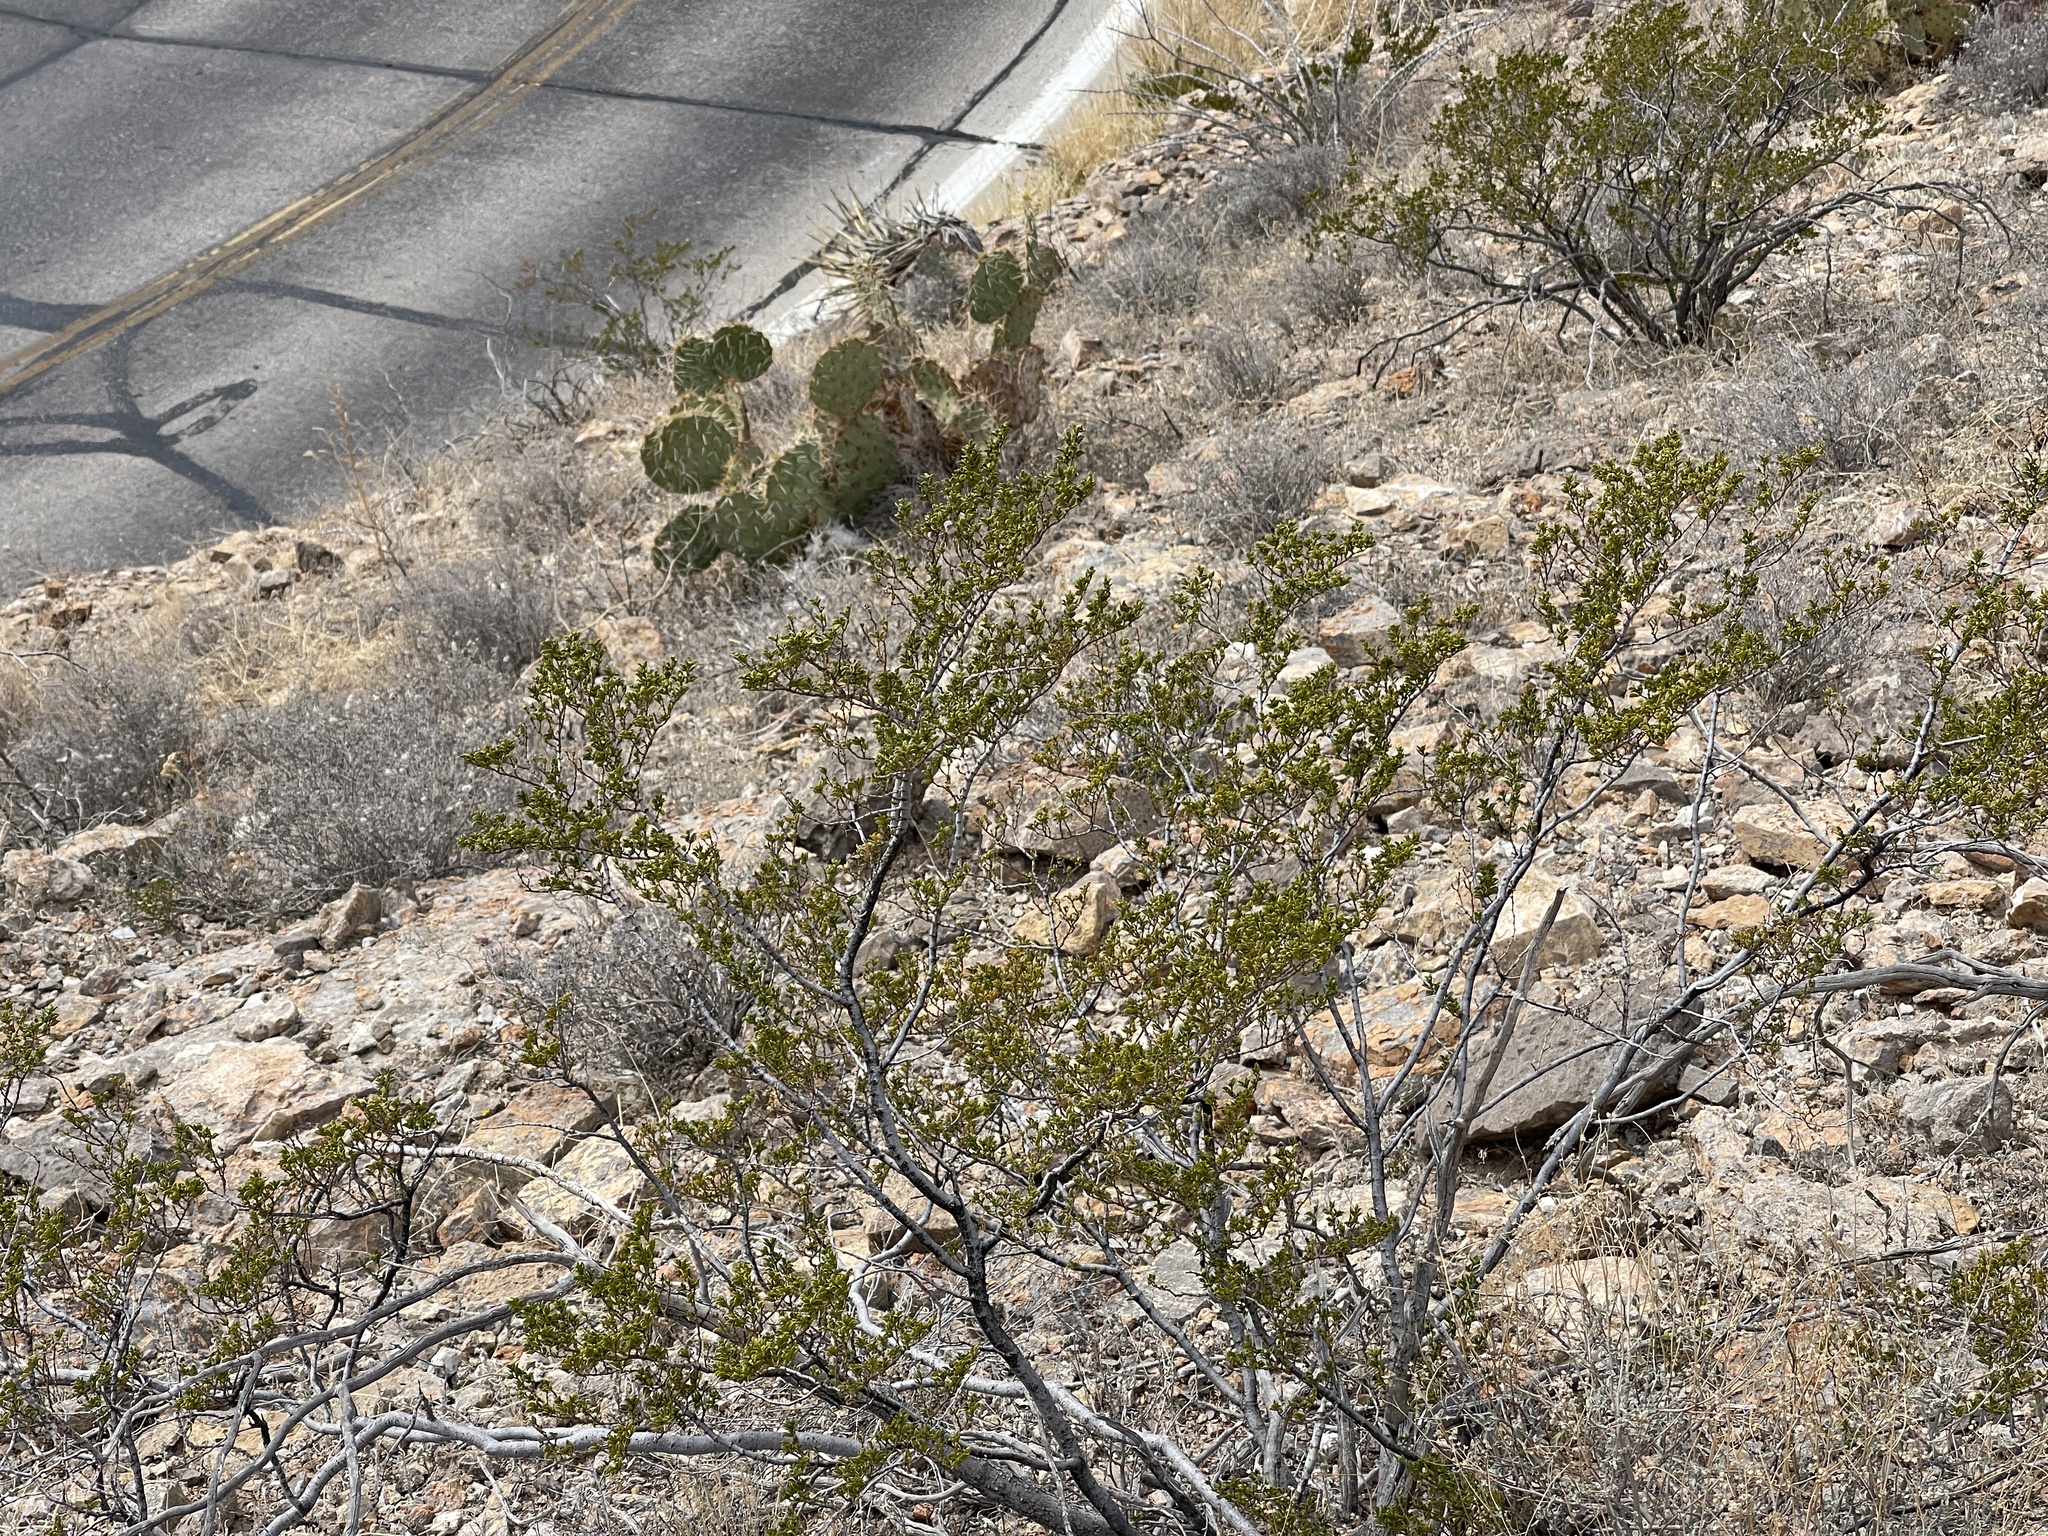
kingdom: Plantae
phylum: Tracheophyta
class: Magnoliopsida
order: Zygophyllales
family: Zygophyllaceae
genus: Larrea
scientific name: Larrea tridentata
